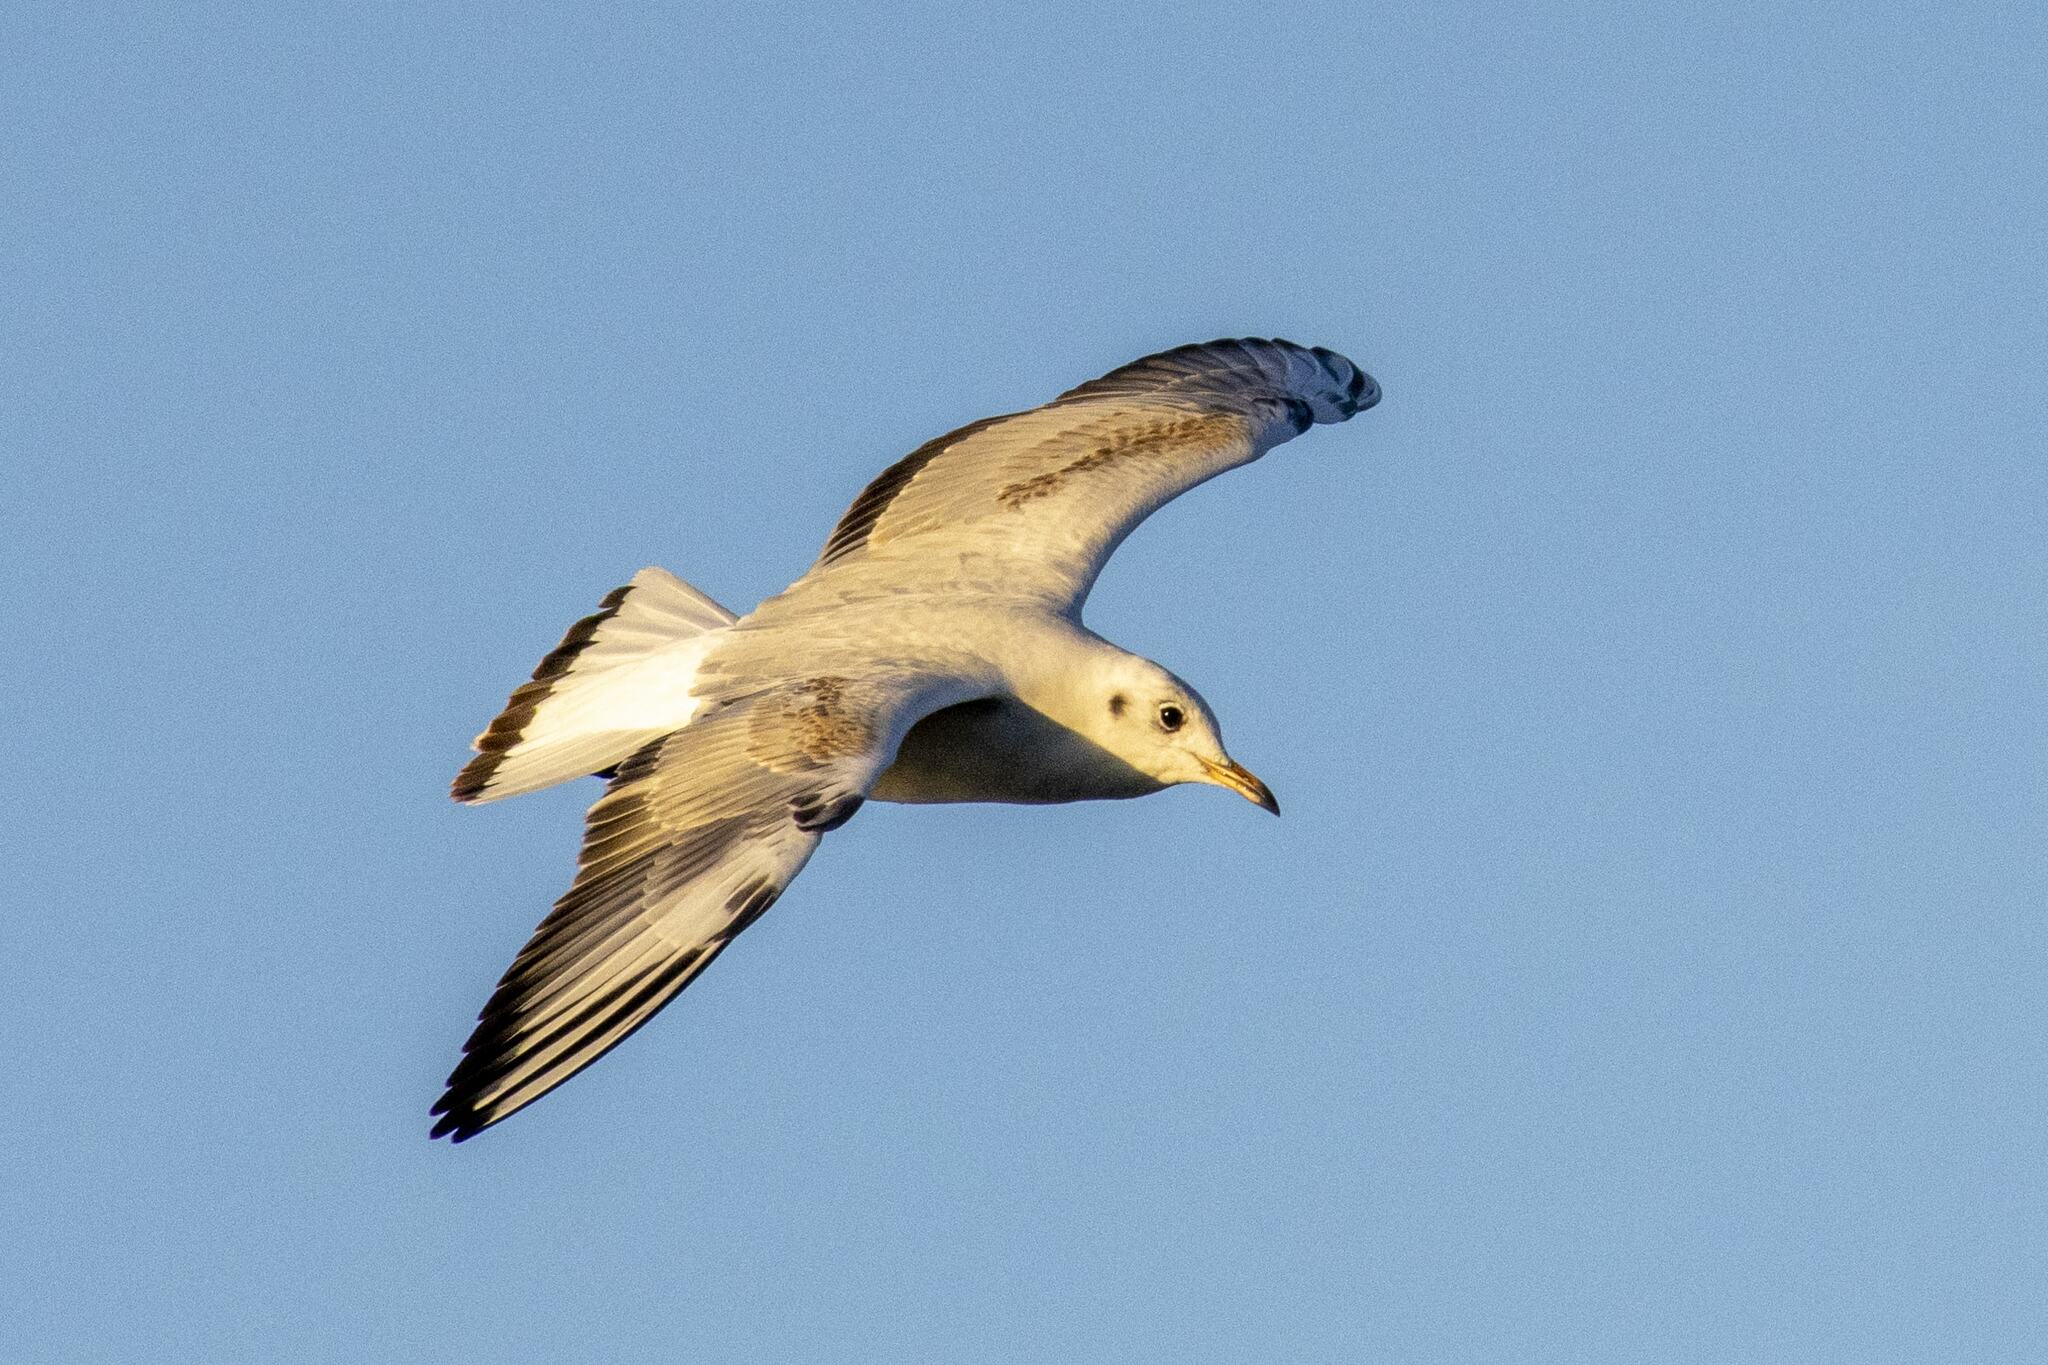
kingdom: Animalia
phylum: Chordata
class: Aves
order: Charadriiformes
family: Laridae
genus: Chroicocephalus
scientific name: Chroicocephalus ridibundus
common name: Black-headed gull
